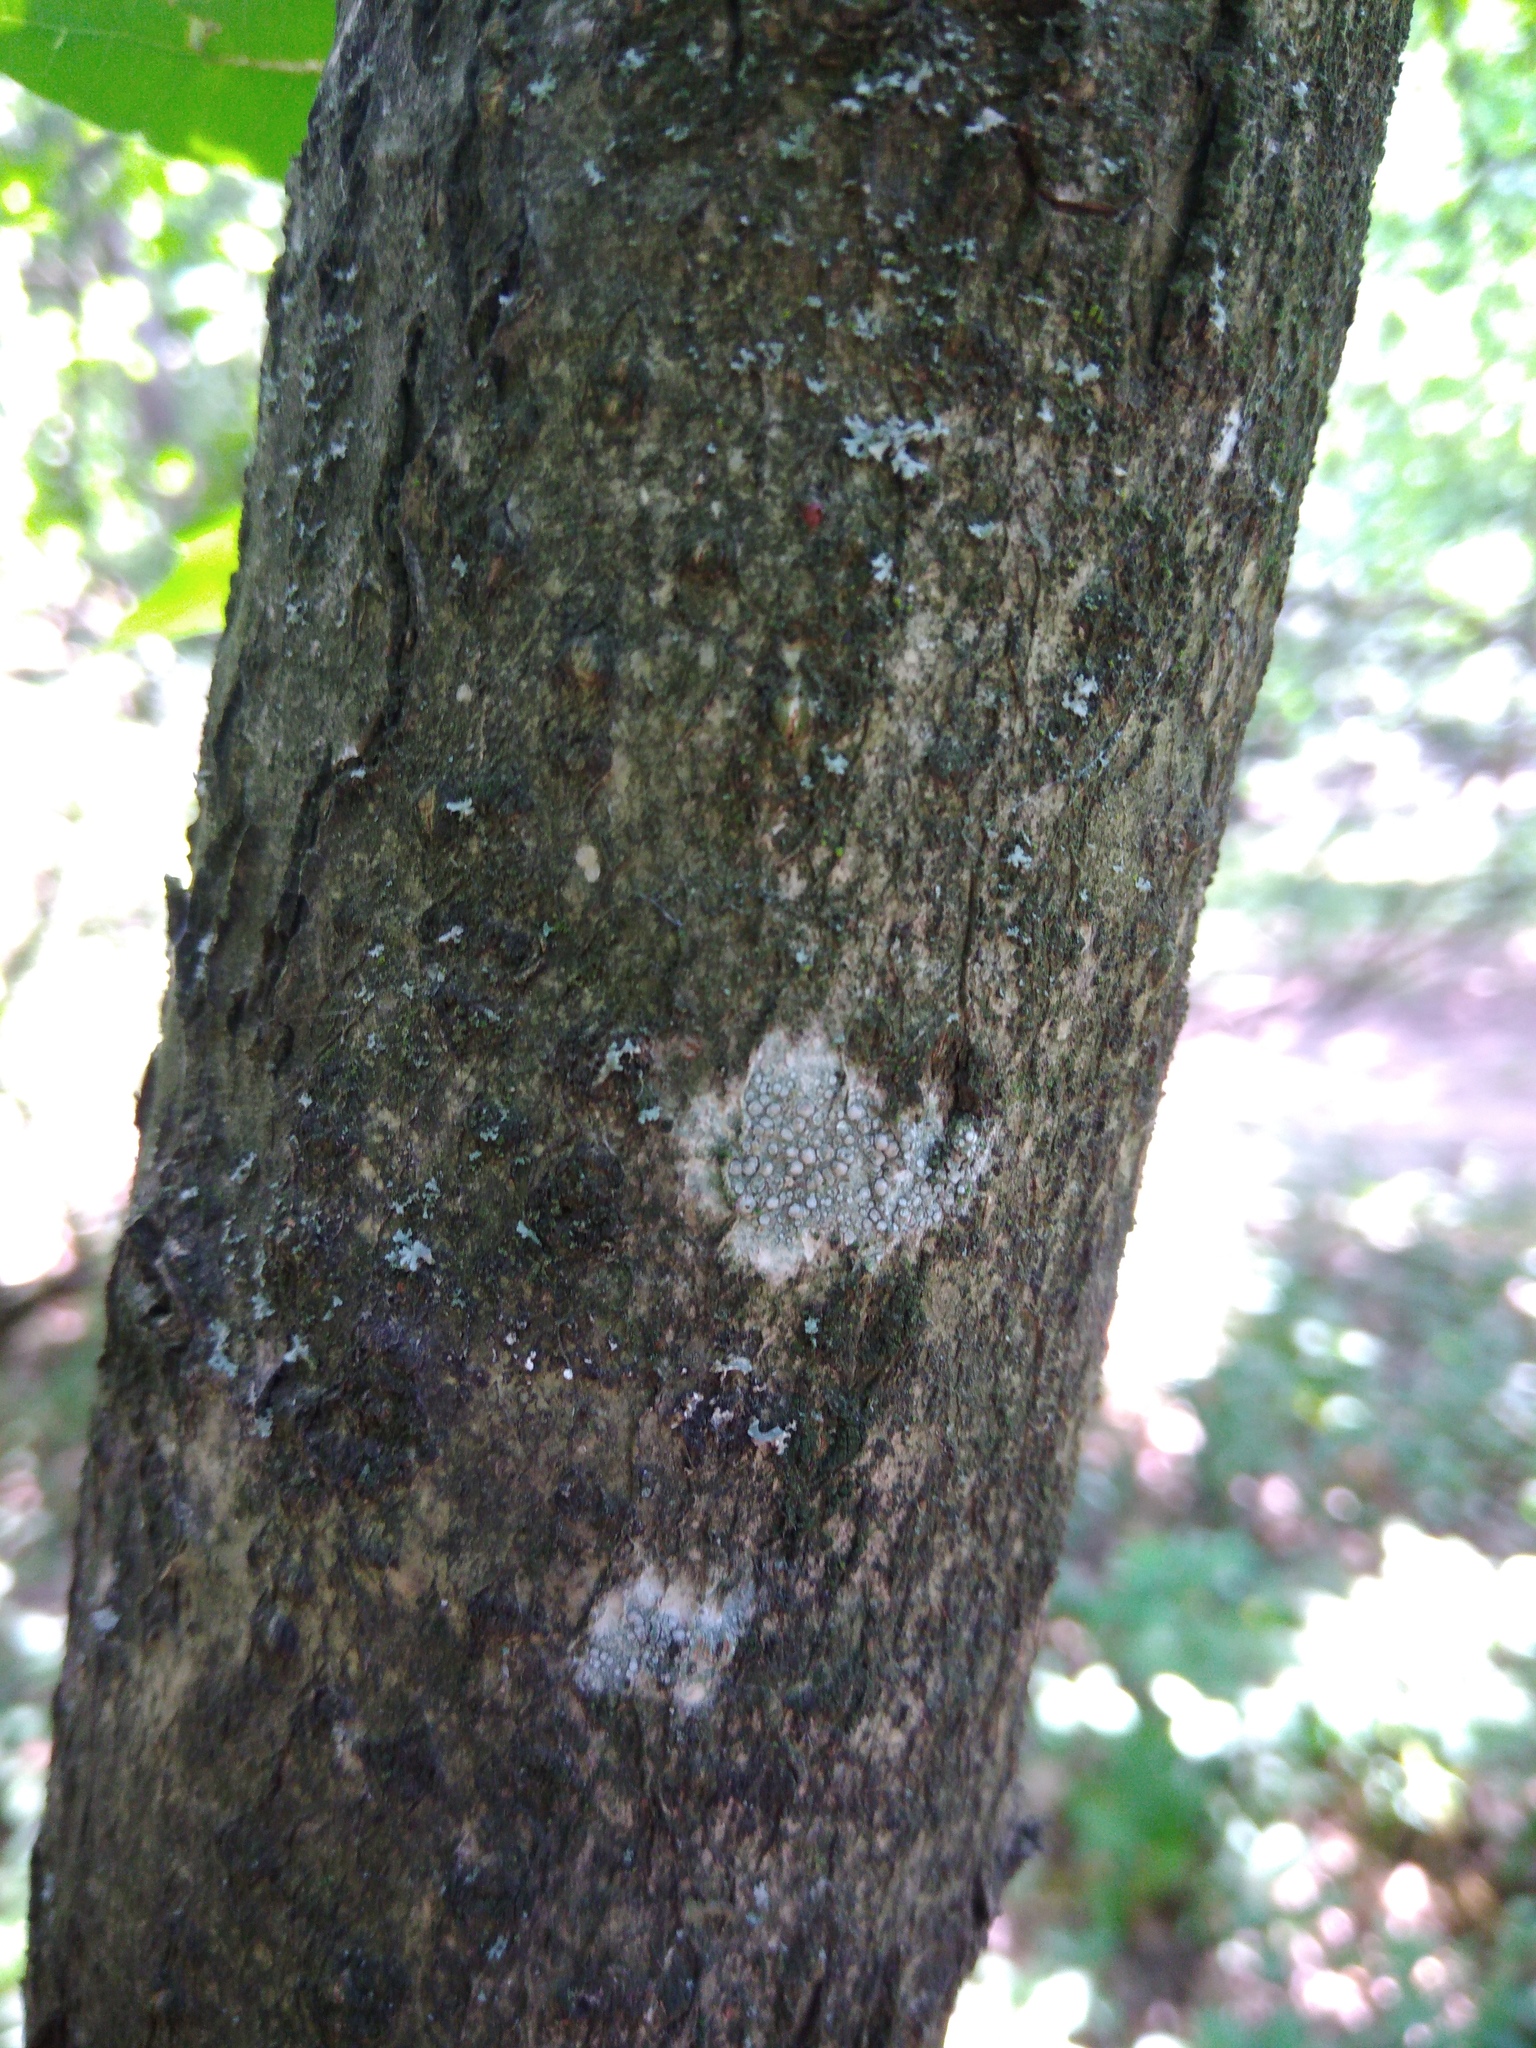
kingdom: Fungi
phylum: Ascomycota
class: Lecanoromycetes
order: Lecanorales
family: Lecanoraceae
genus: Glaucomaria
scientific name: Glaucomaria carpinea
